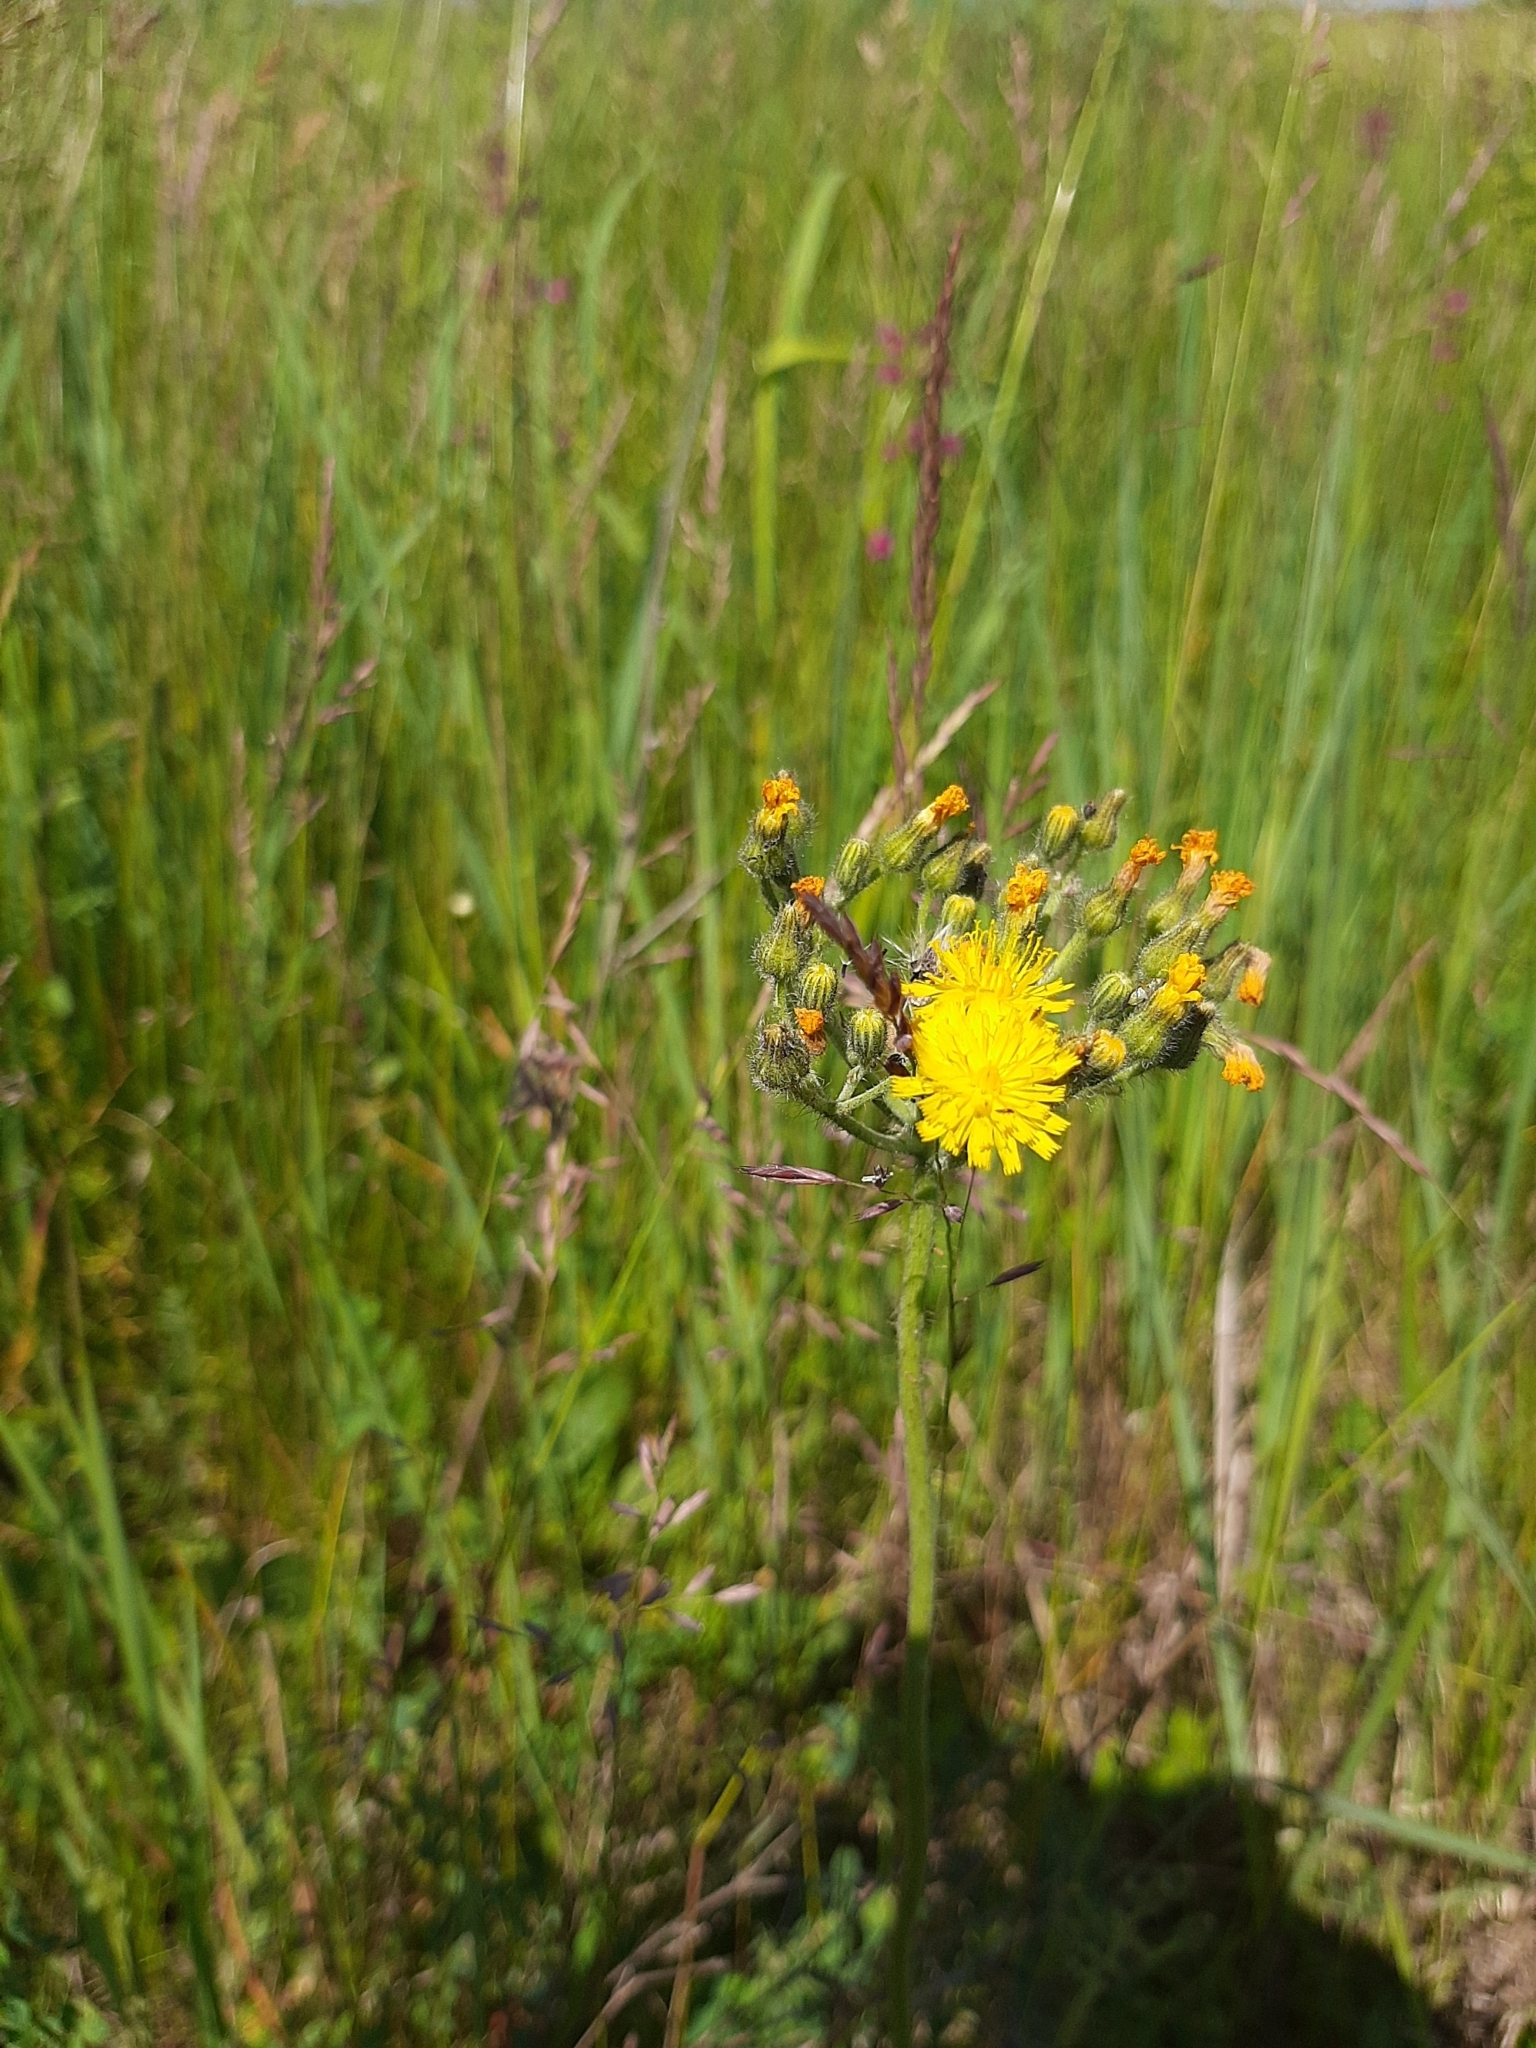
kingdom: Plantae
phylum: Tracheophyta
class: Magnoliopsida
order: Asterales
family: Asteraceae
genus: Pilosella
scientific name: Pilosella
